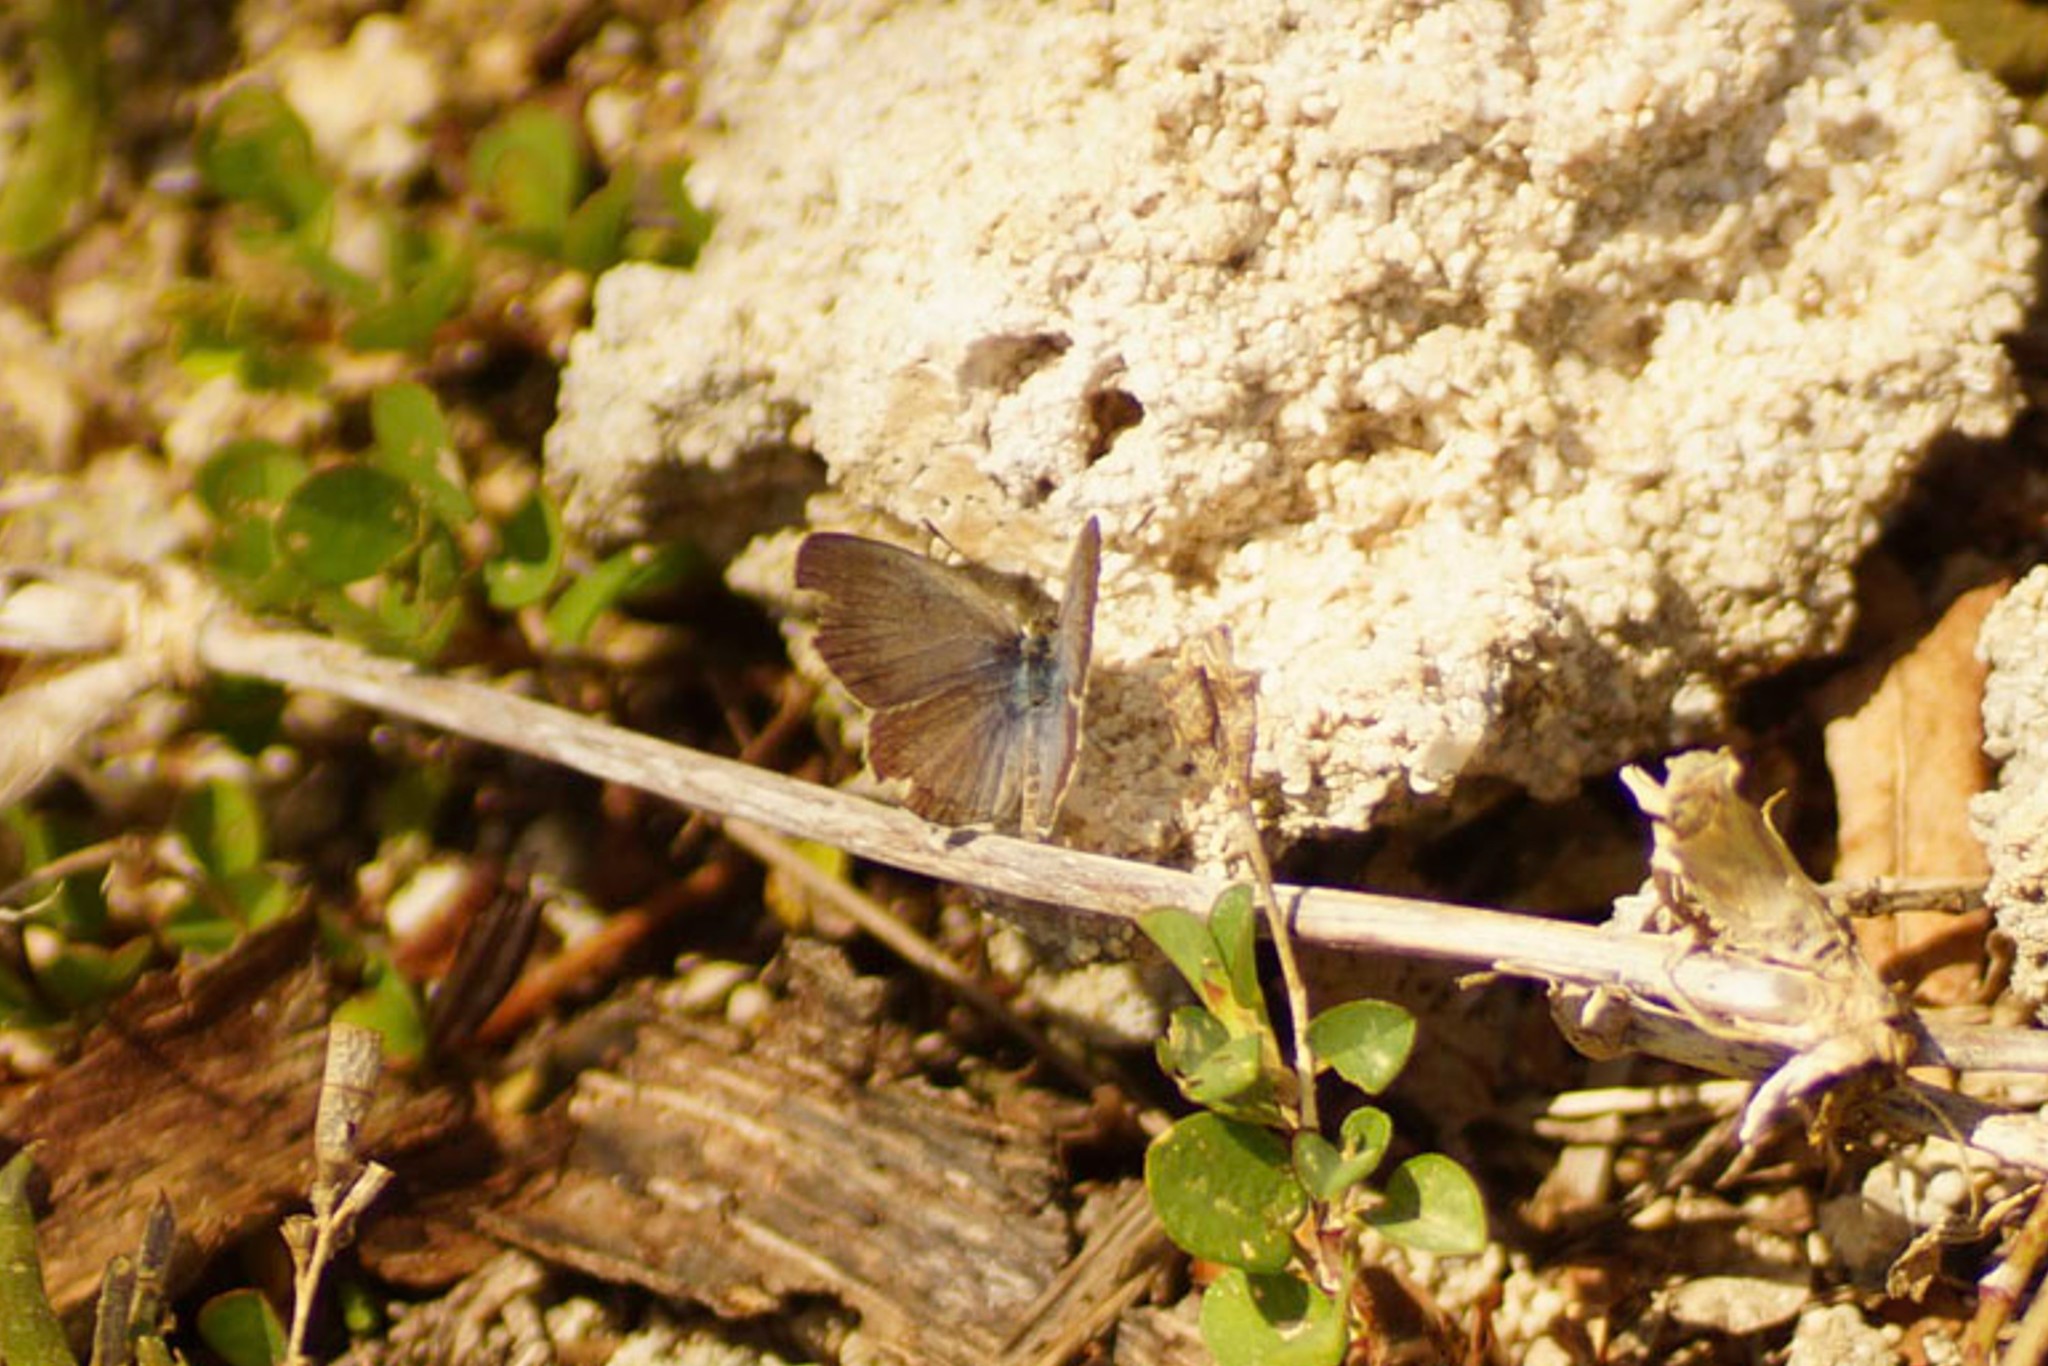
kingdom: Animalia
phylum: Arthropoda
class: Insecta
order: Lepidoptera
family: Lycaenidae
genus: Zizina
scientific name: Zizina otis
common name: Lesser grass blue
